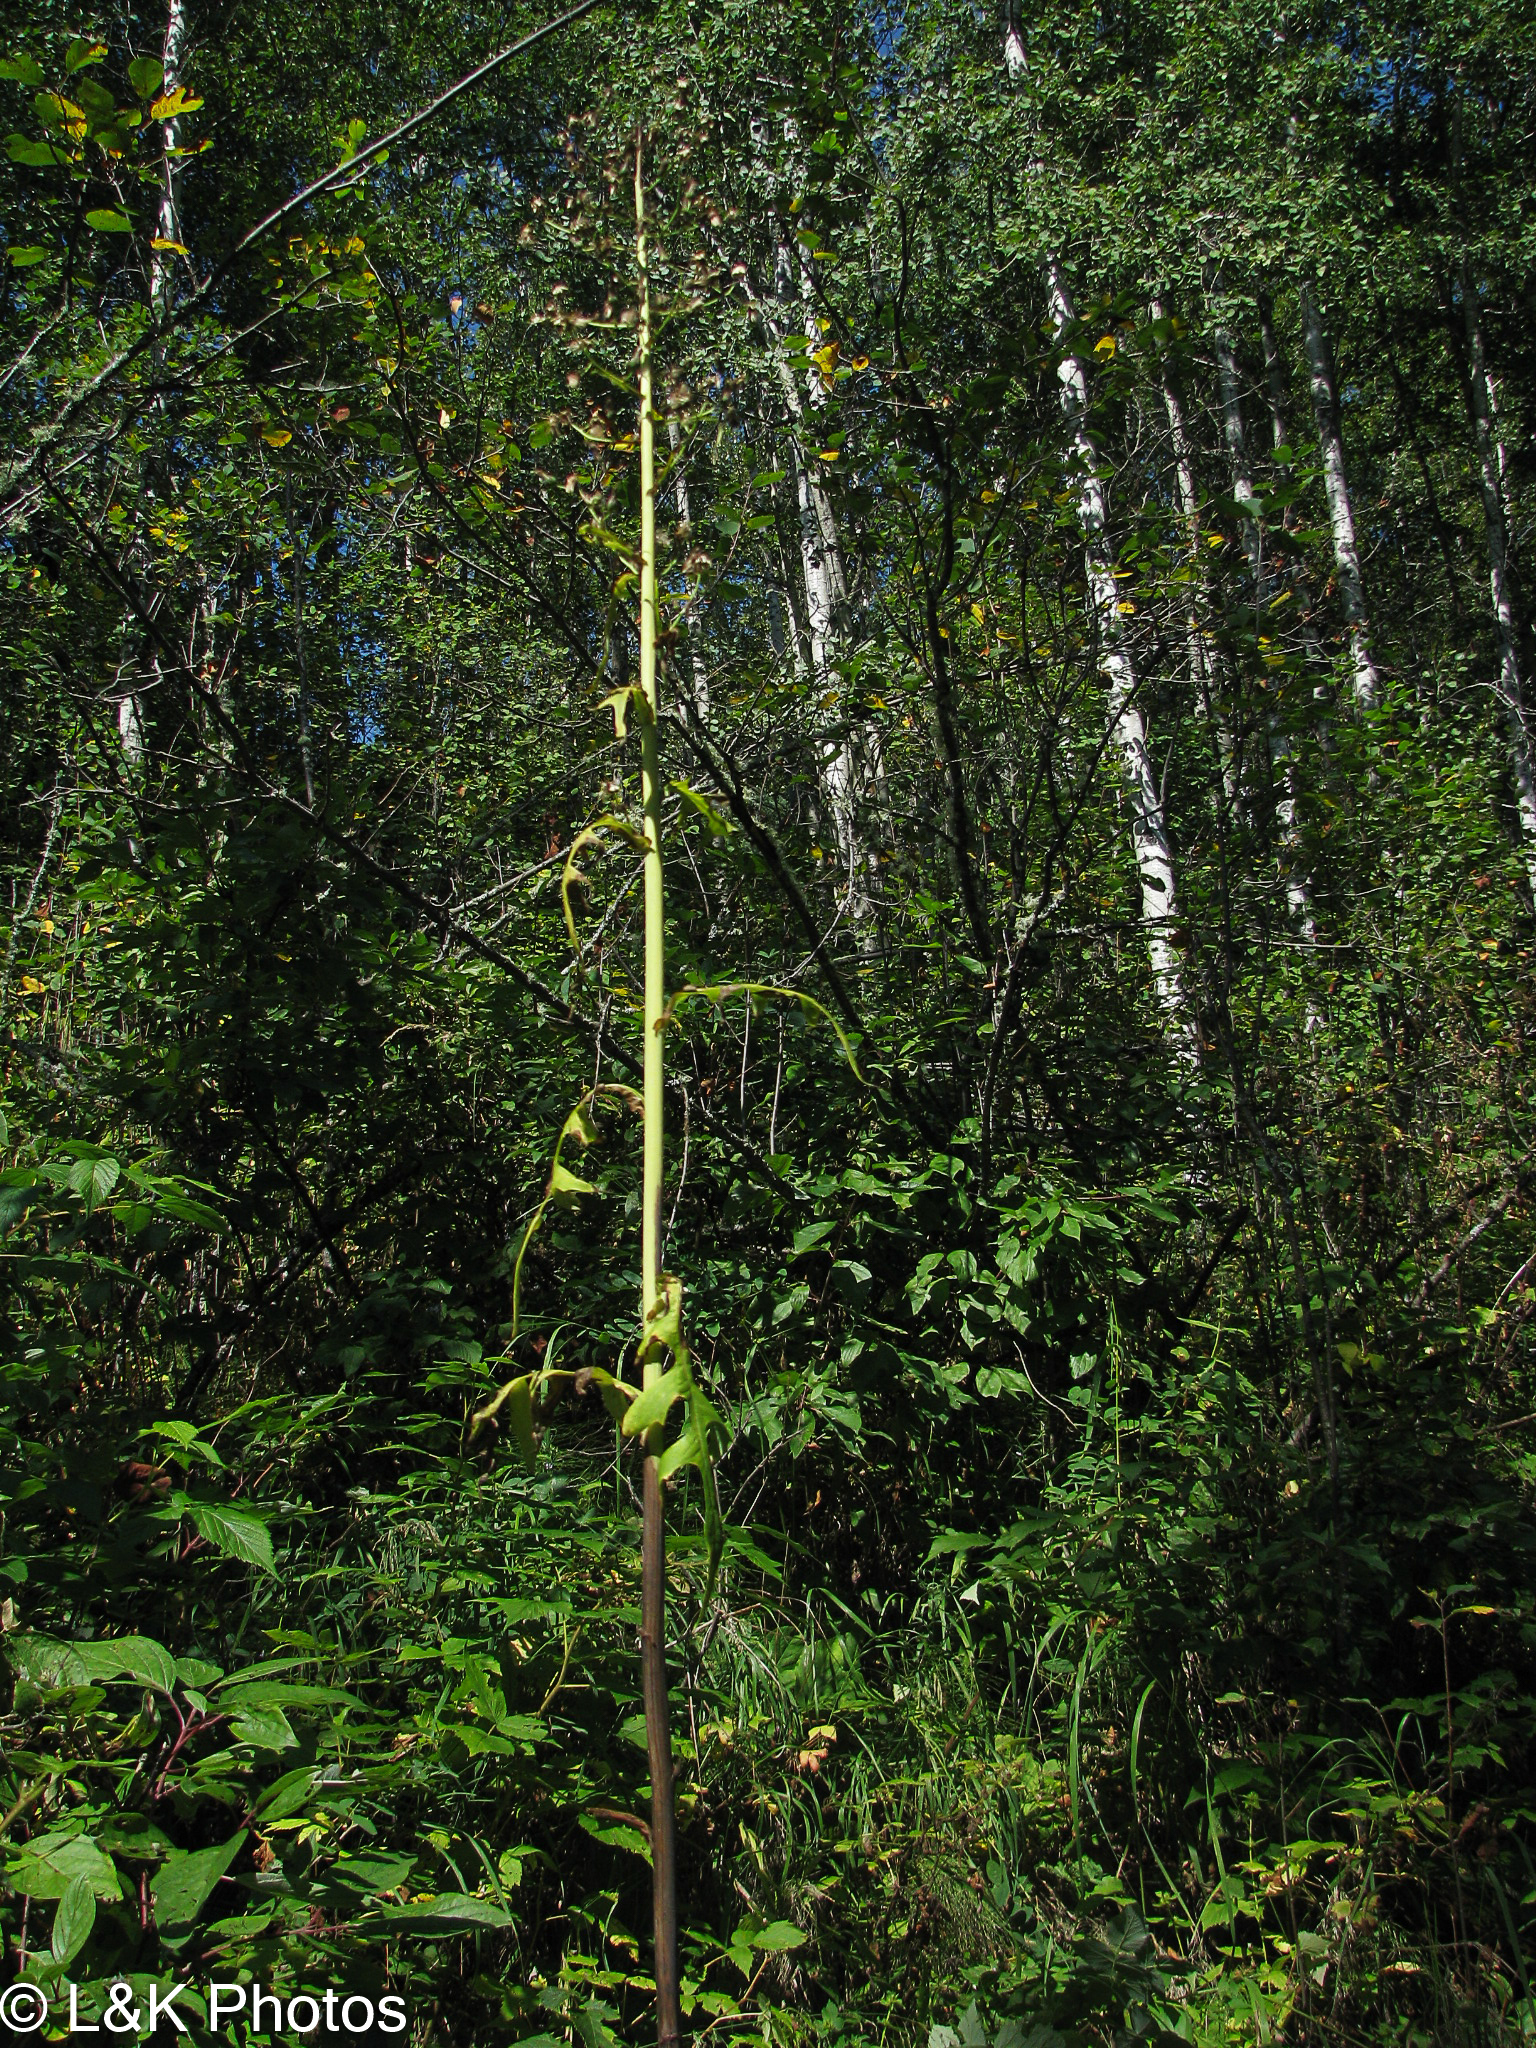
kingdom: Plantae
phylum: Tracheophyta
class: Magnoliopsida
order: Asterales
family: Asteraceae
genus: Lactuca
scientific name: Lactuca biennis
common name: Blue wood lettuce
